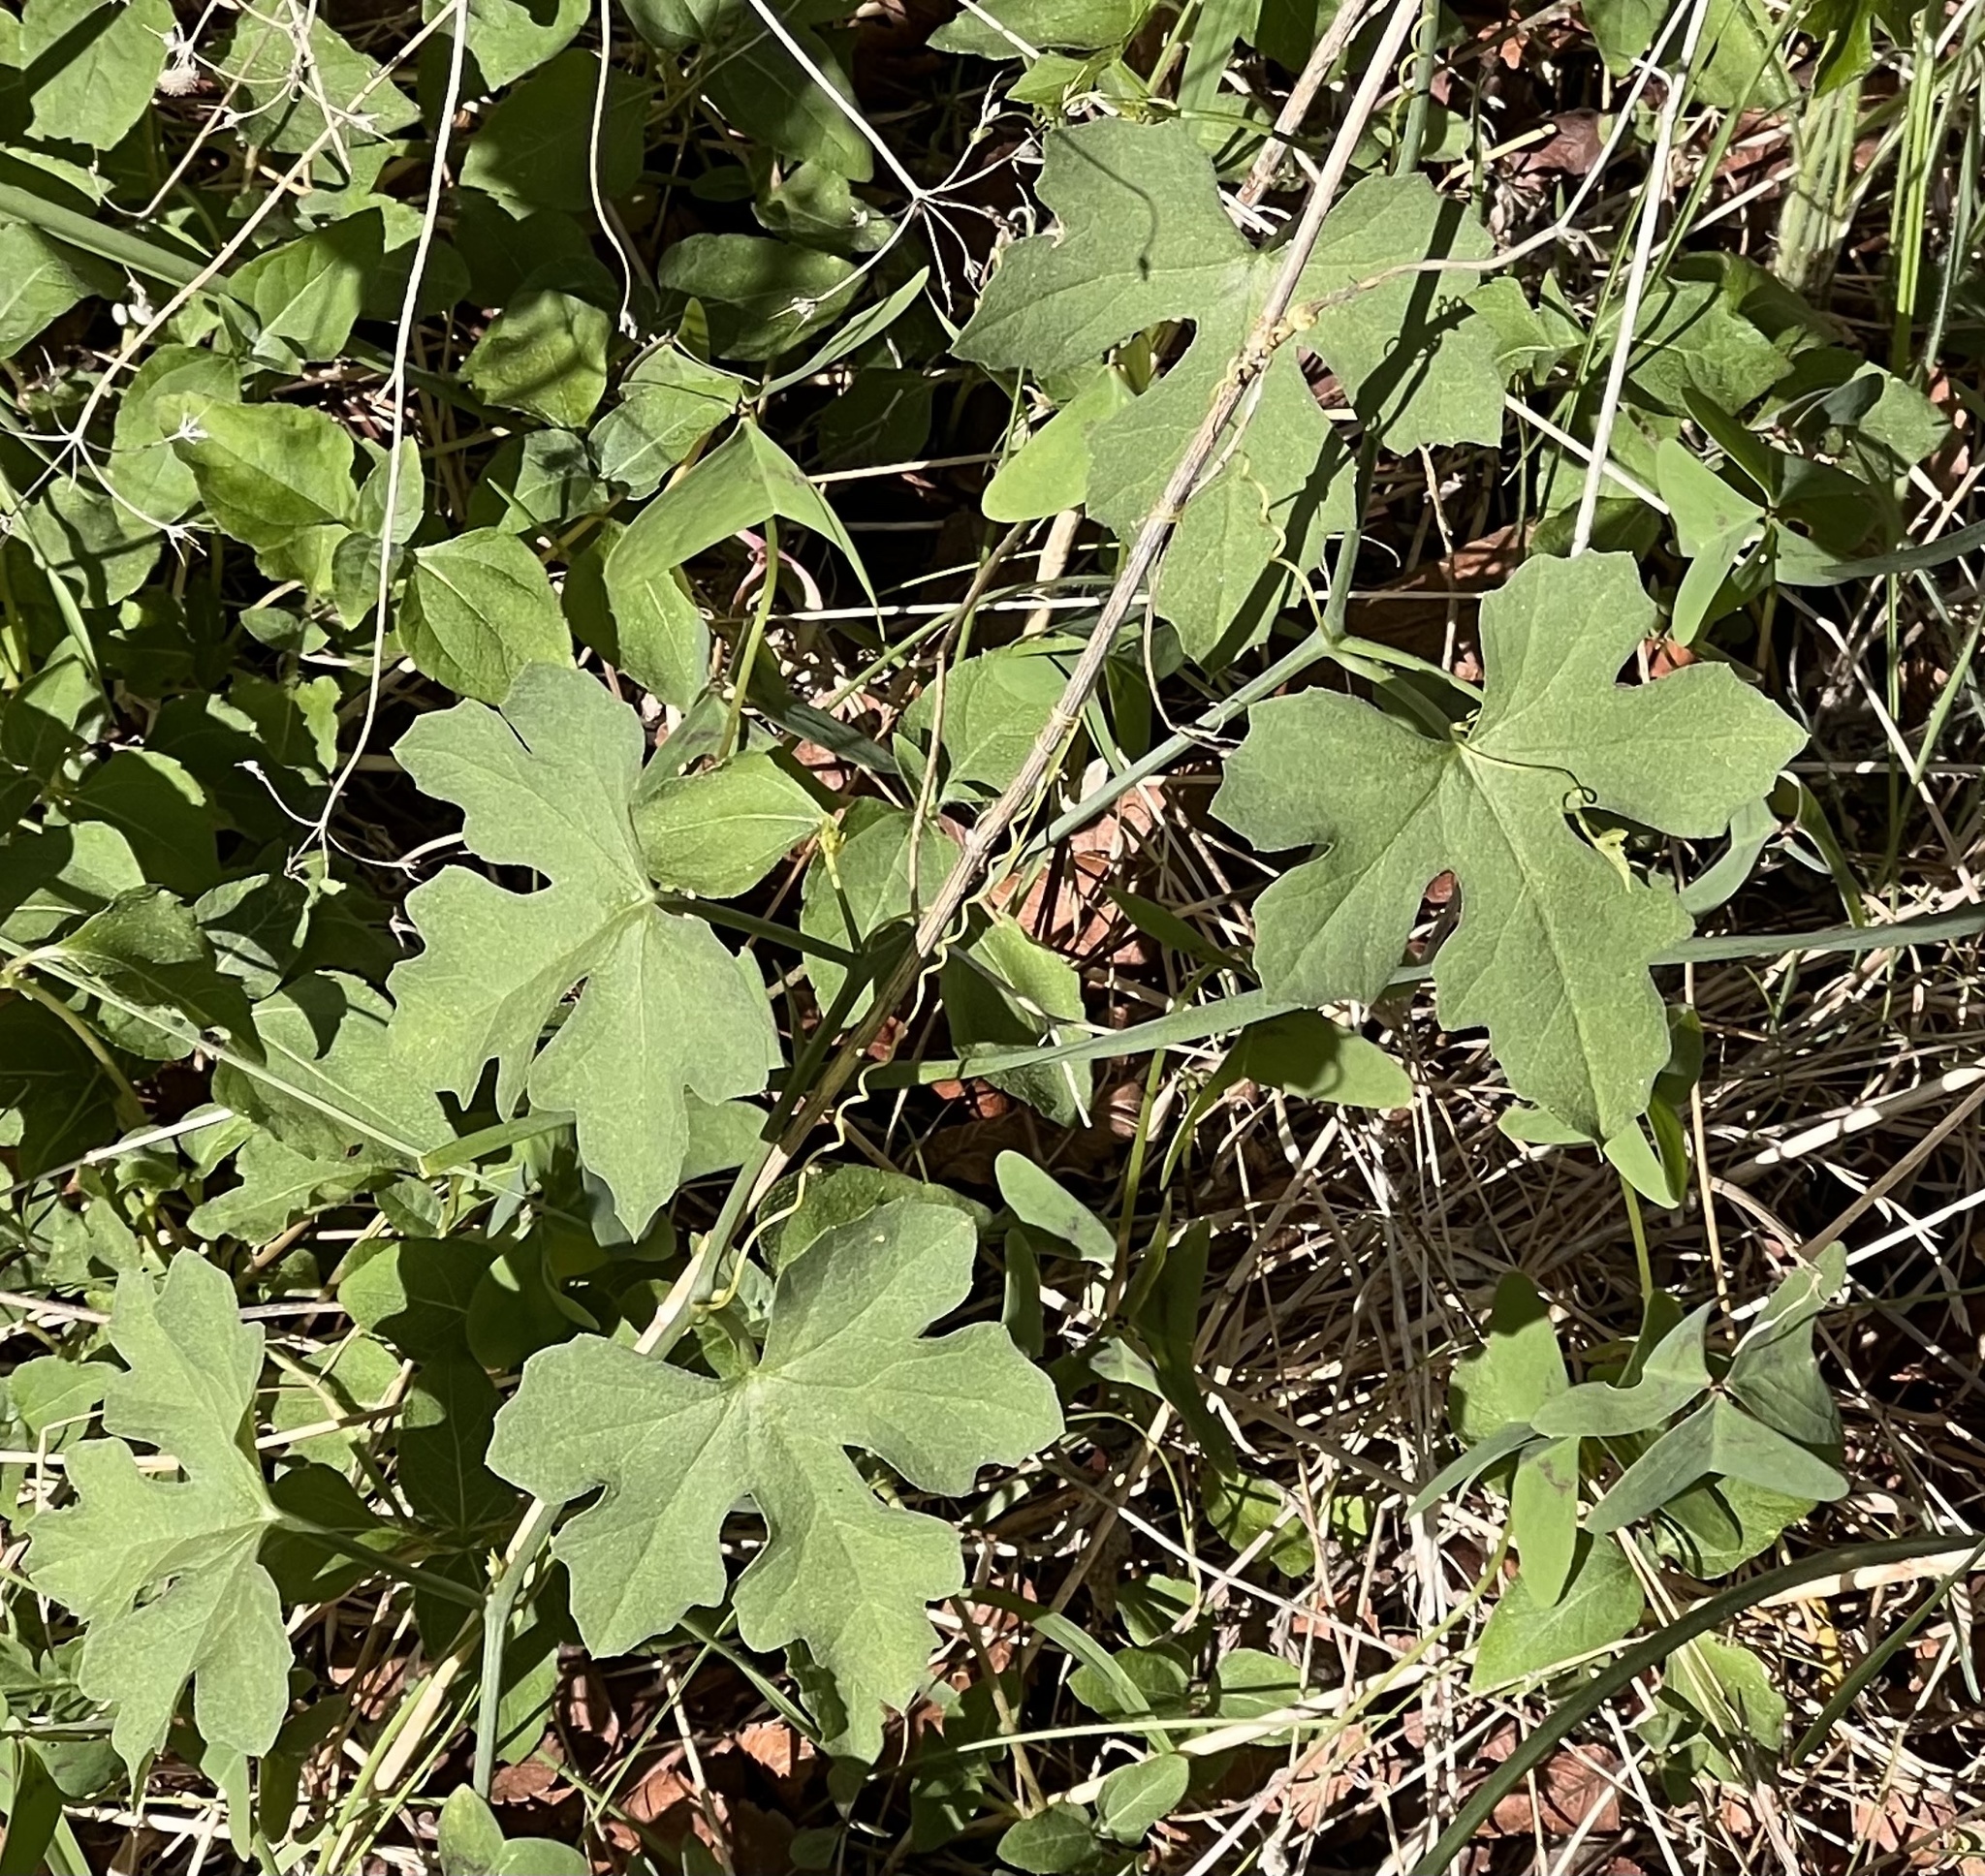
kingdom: Plantae
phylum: Tracheophyta
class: Magnoliopsida
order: Cucurbitales
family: Cucurbitaceae
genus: Ibervillea
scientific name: Ibervillea lindheimeri
